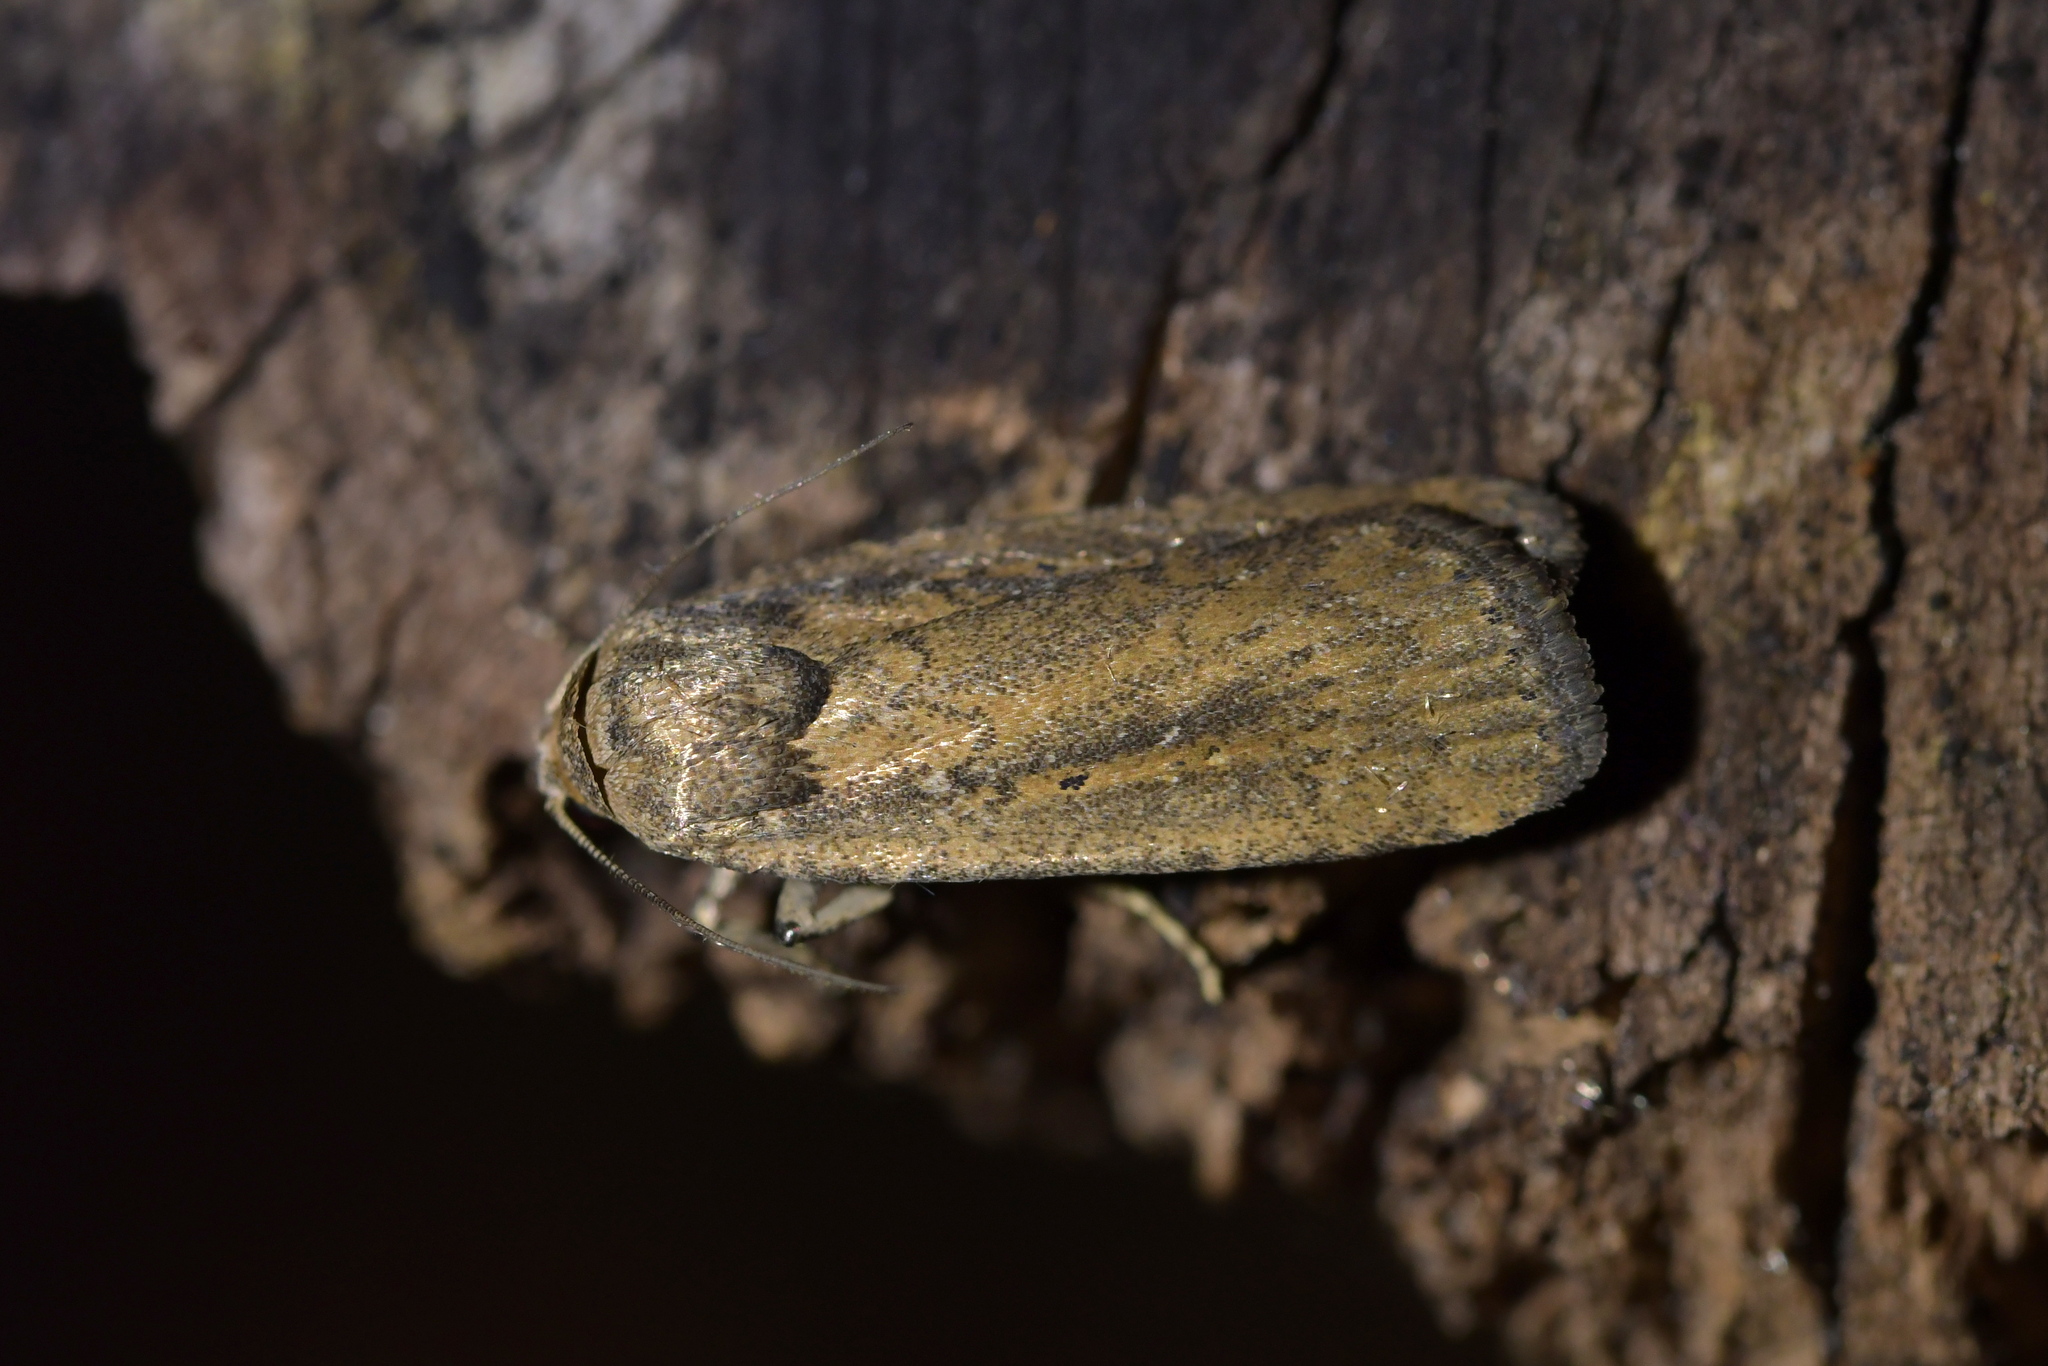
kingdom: Animalia
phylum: Arthropoda
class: Insecta
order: Lepidoptera
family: Noctuidae
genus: Athetis
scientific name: Athetis tenuis
